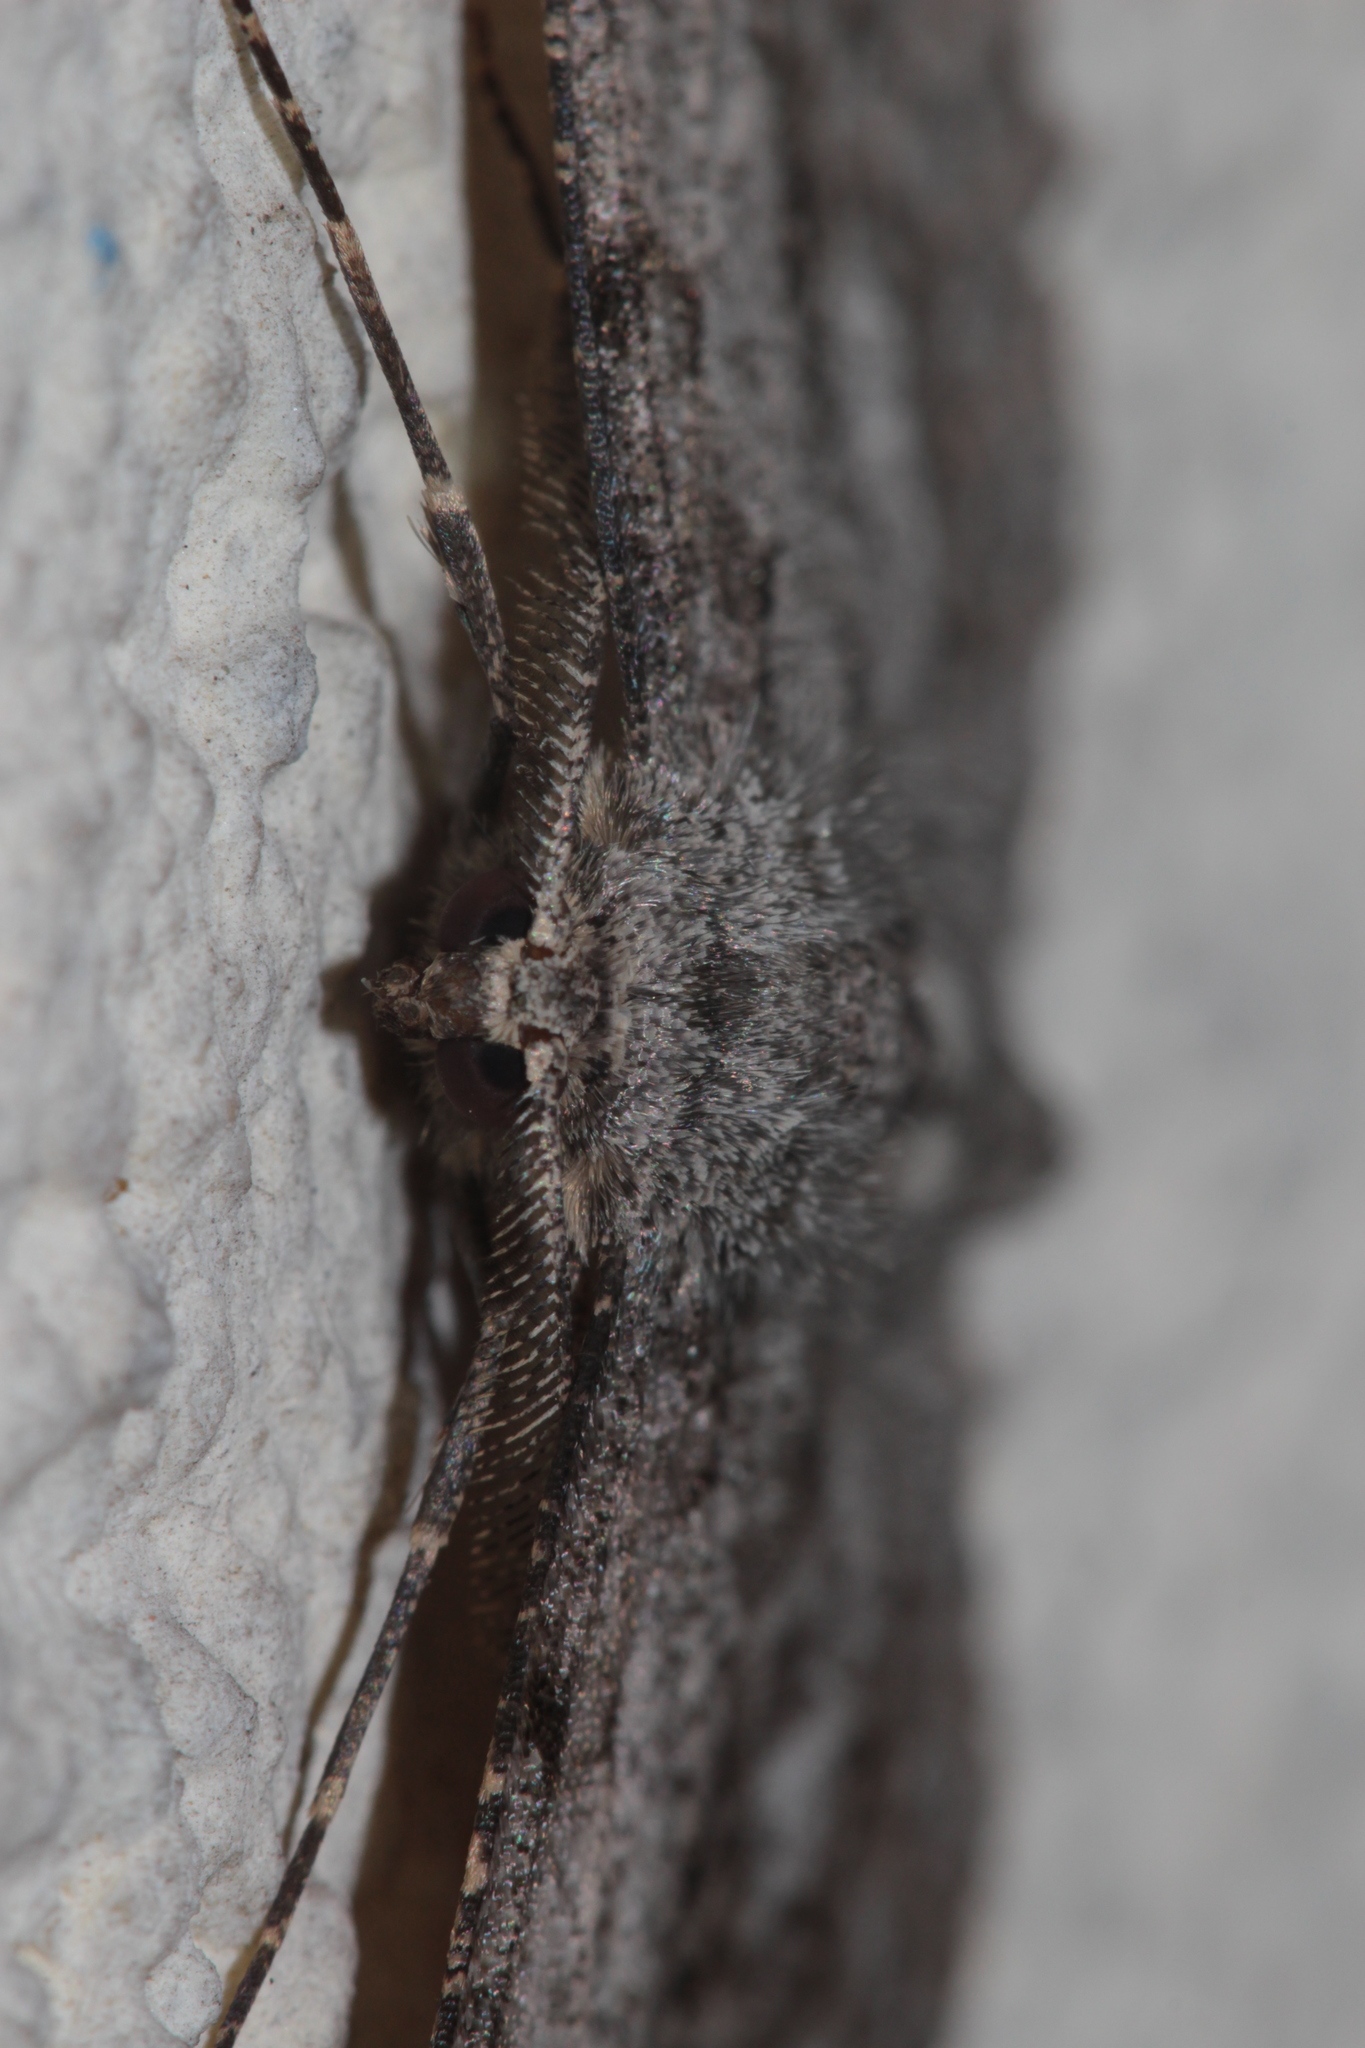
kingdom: Animalia
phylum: Arthropoda
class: Insecta
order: Lepidoptera
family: Geometridae
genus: Hypomecis
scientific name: Hypomecis punctinalis
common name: Pale oak beauty
